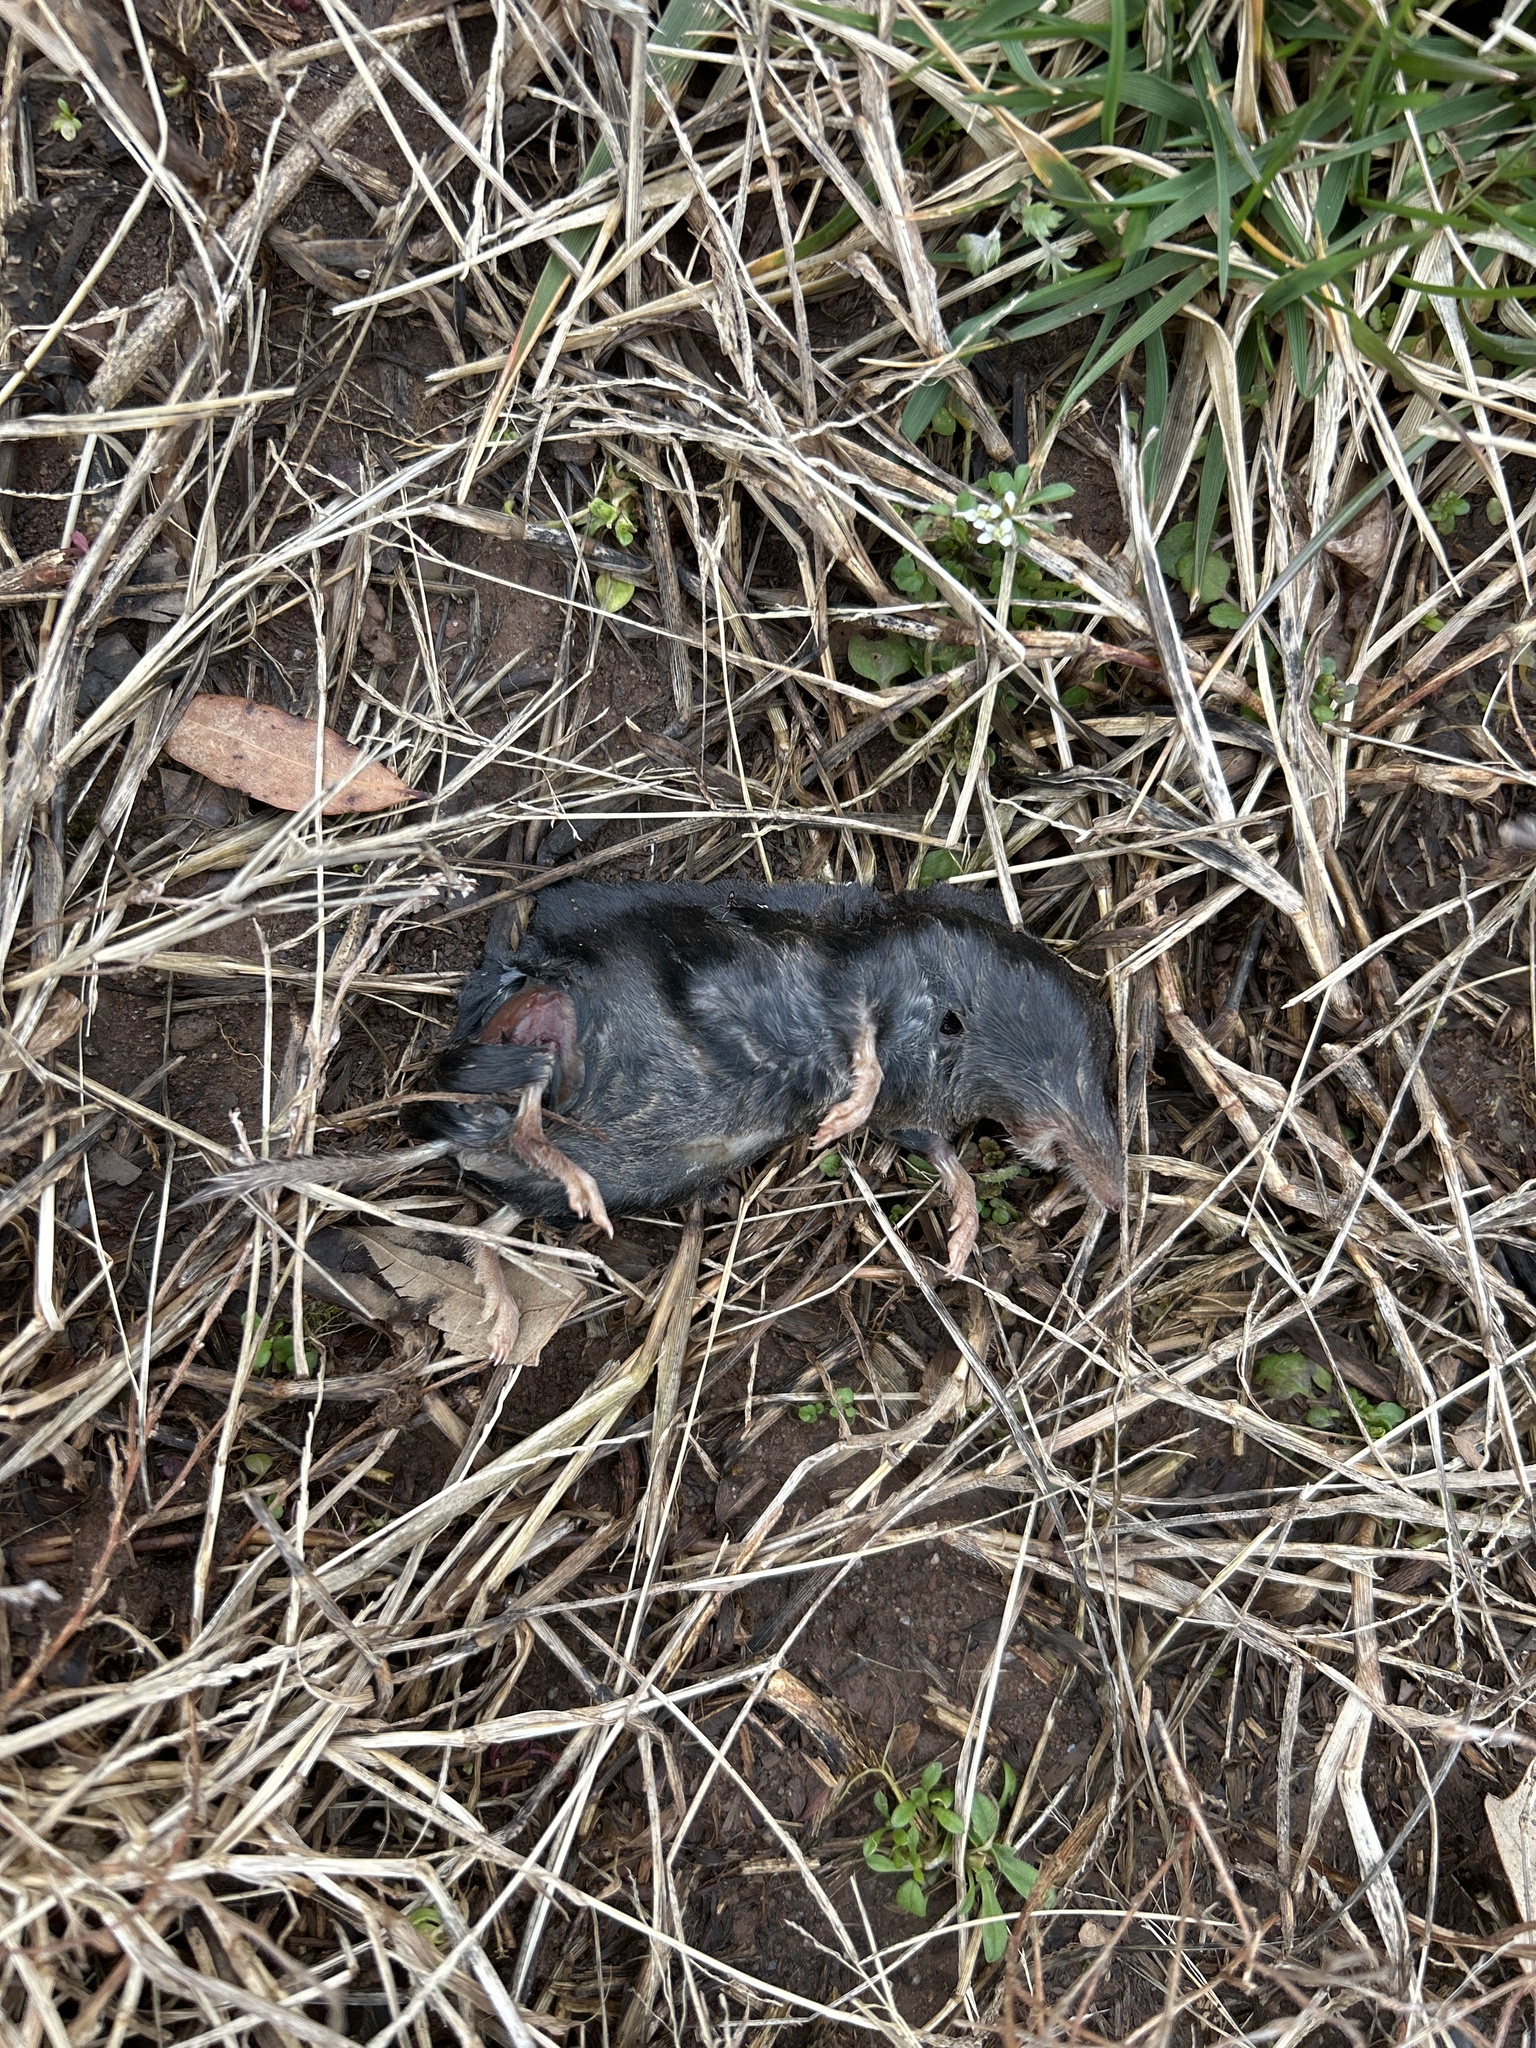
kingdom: Animalia
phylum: Chordata
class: Mammalia
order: Soricomorpha
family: Soricidae
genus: Blarina
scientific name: Blarina brevicauda
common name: Northern short-tailed shrew
